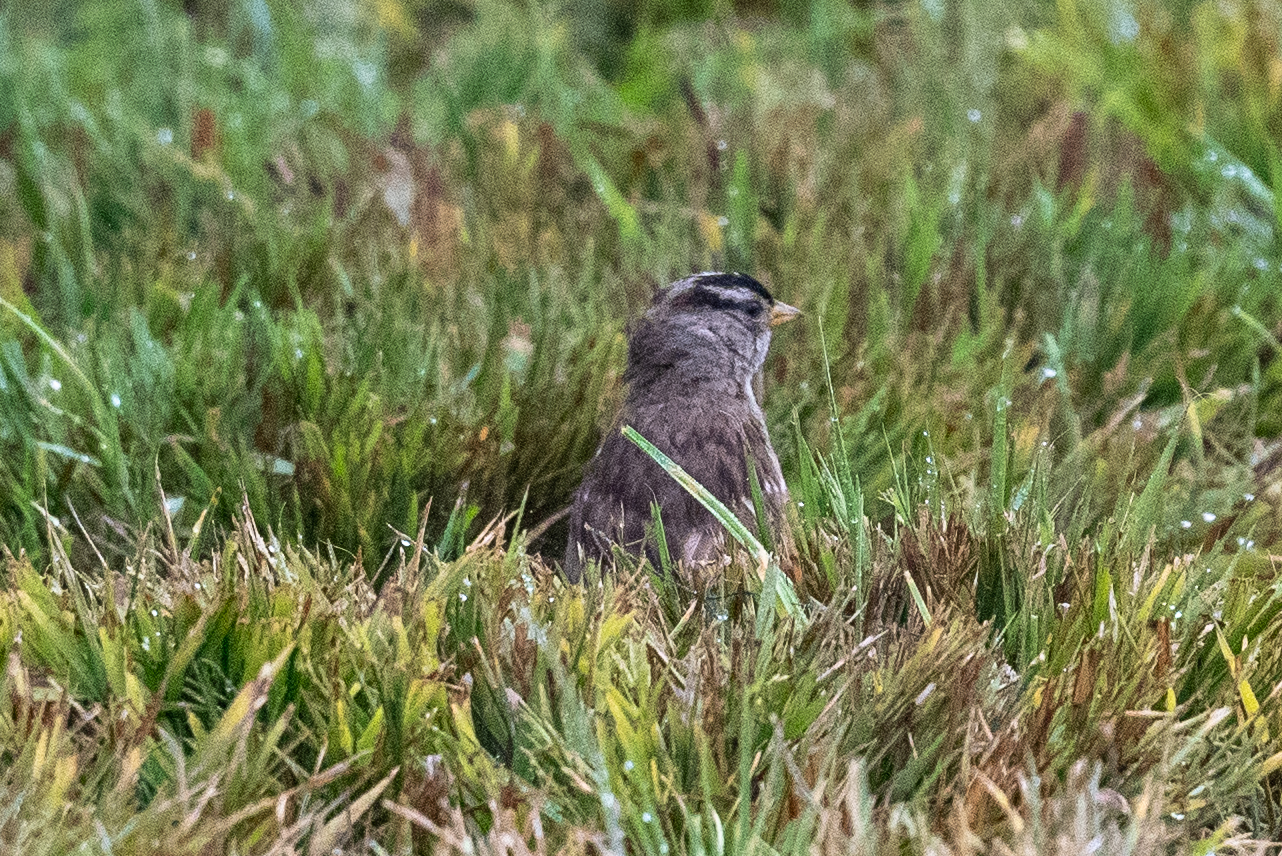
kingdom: Animalia
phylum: Chordata
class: Aves
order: Passeriformes
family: Passerellidae
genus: Zonotrichia
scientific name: Zonotrichia leucophrys
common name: White-crowned sparrow
